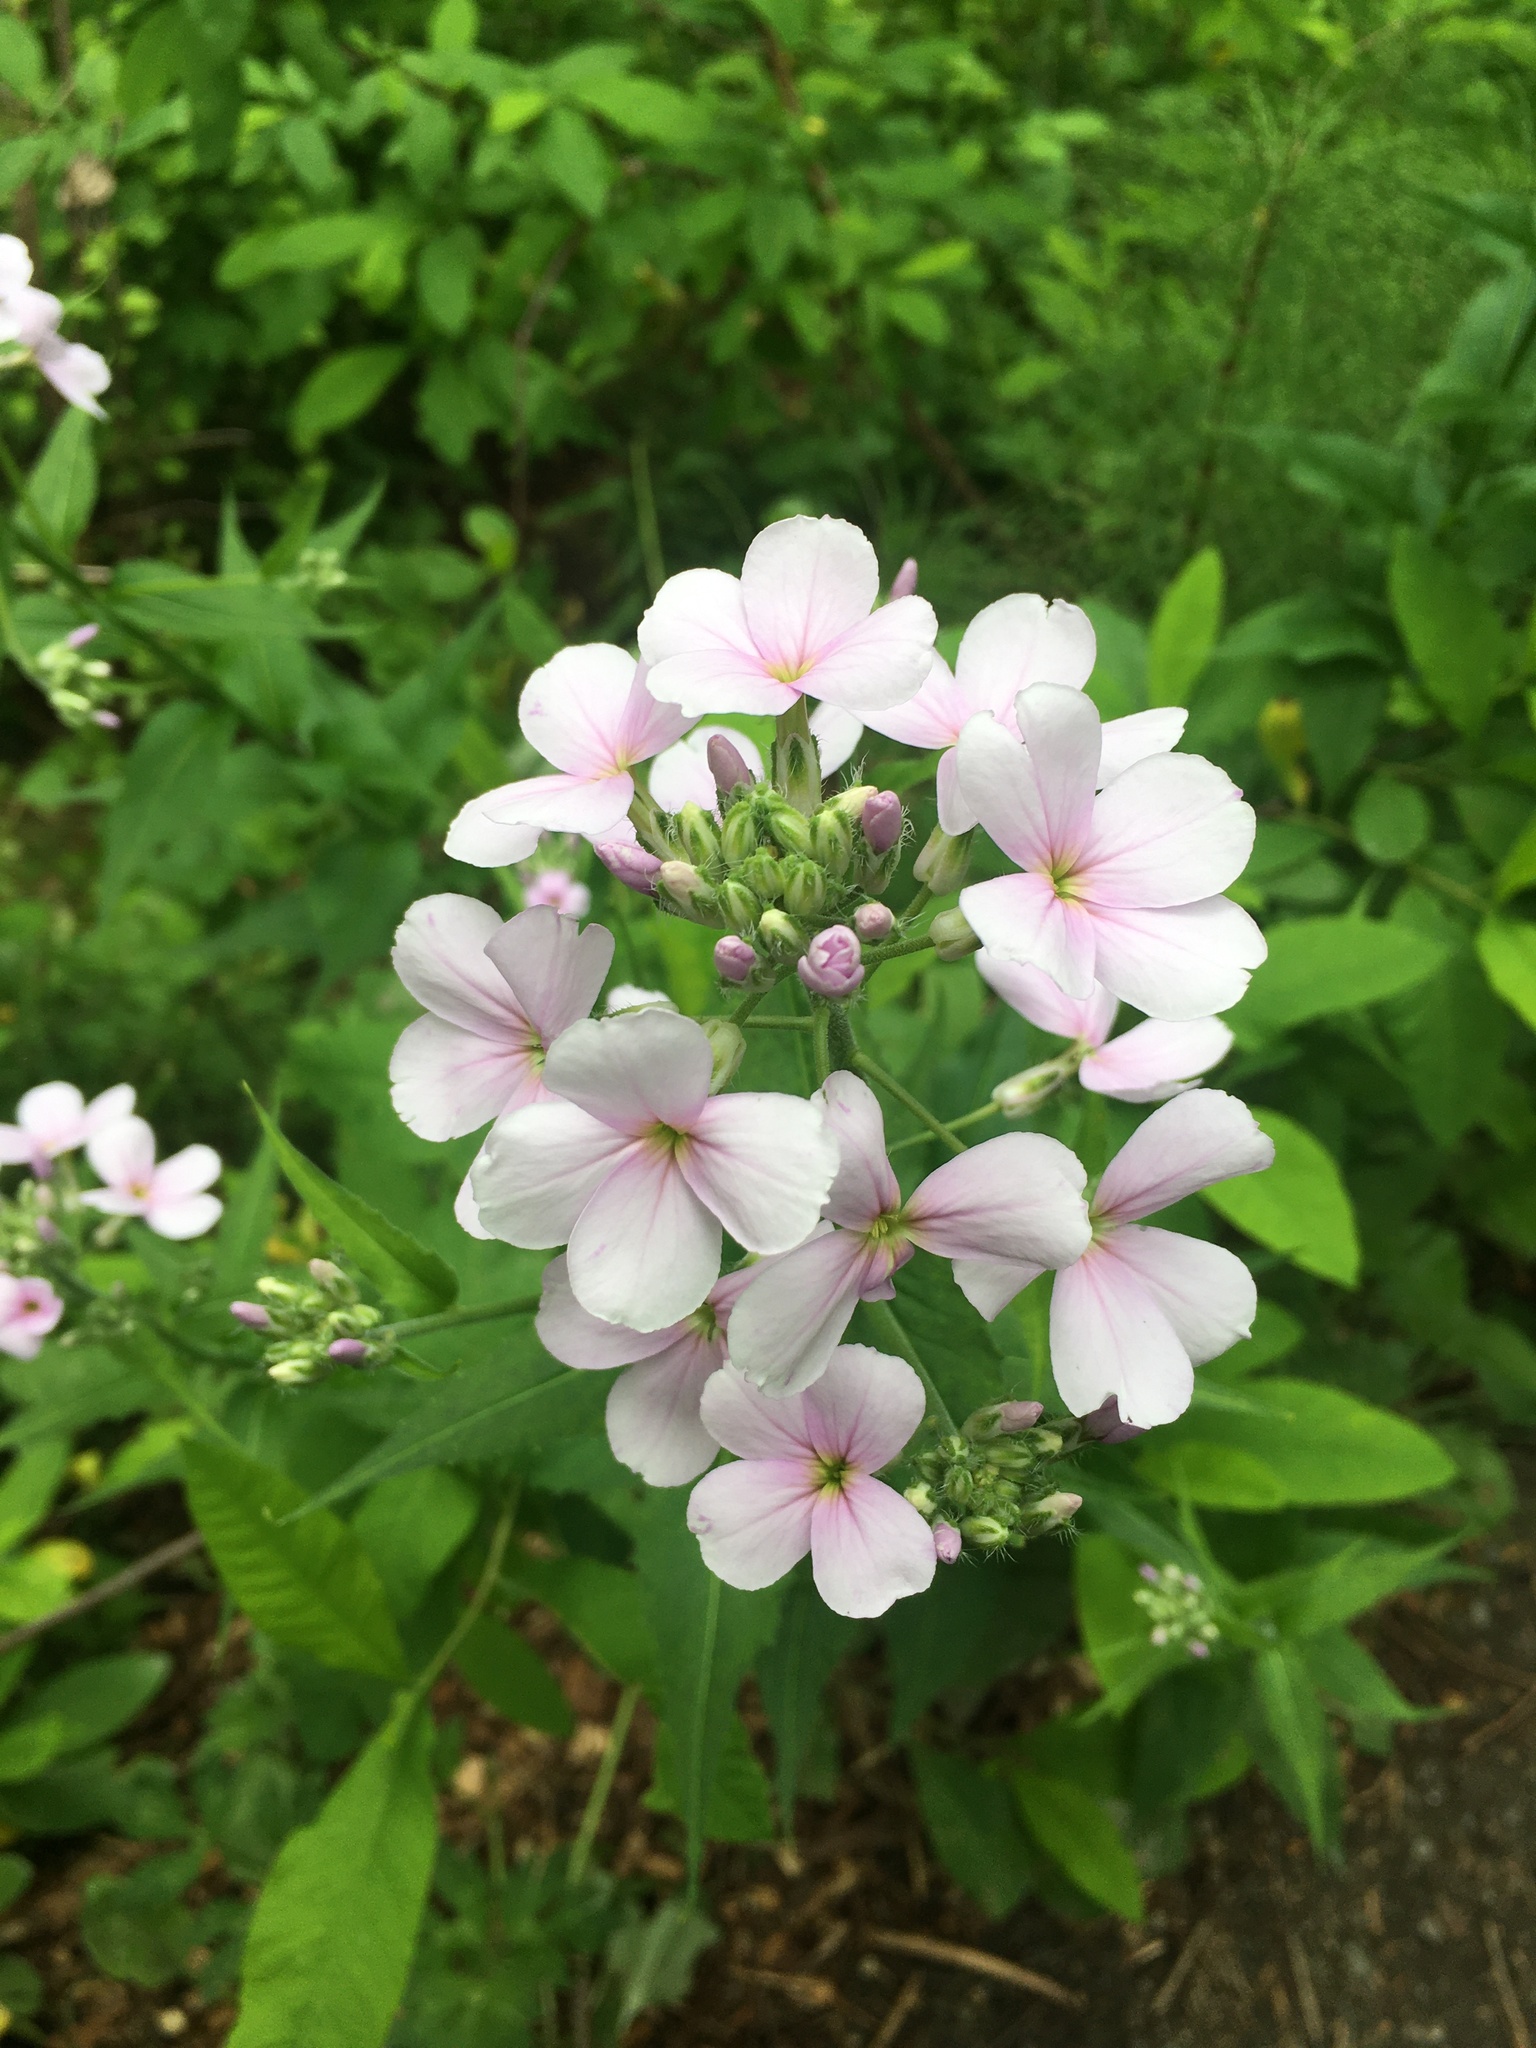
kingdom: Plantae
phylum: Tracheophyta
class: Magnoliopsida
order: Brassicales
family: Brassicaceae
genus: Hesperis
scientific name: Hesperis matronalis
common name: Dame's-violet
